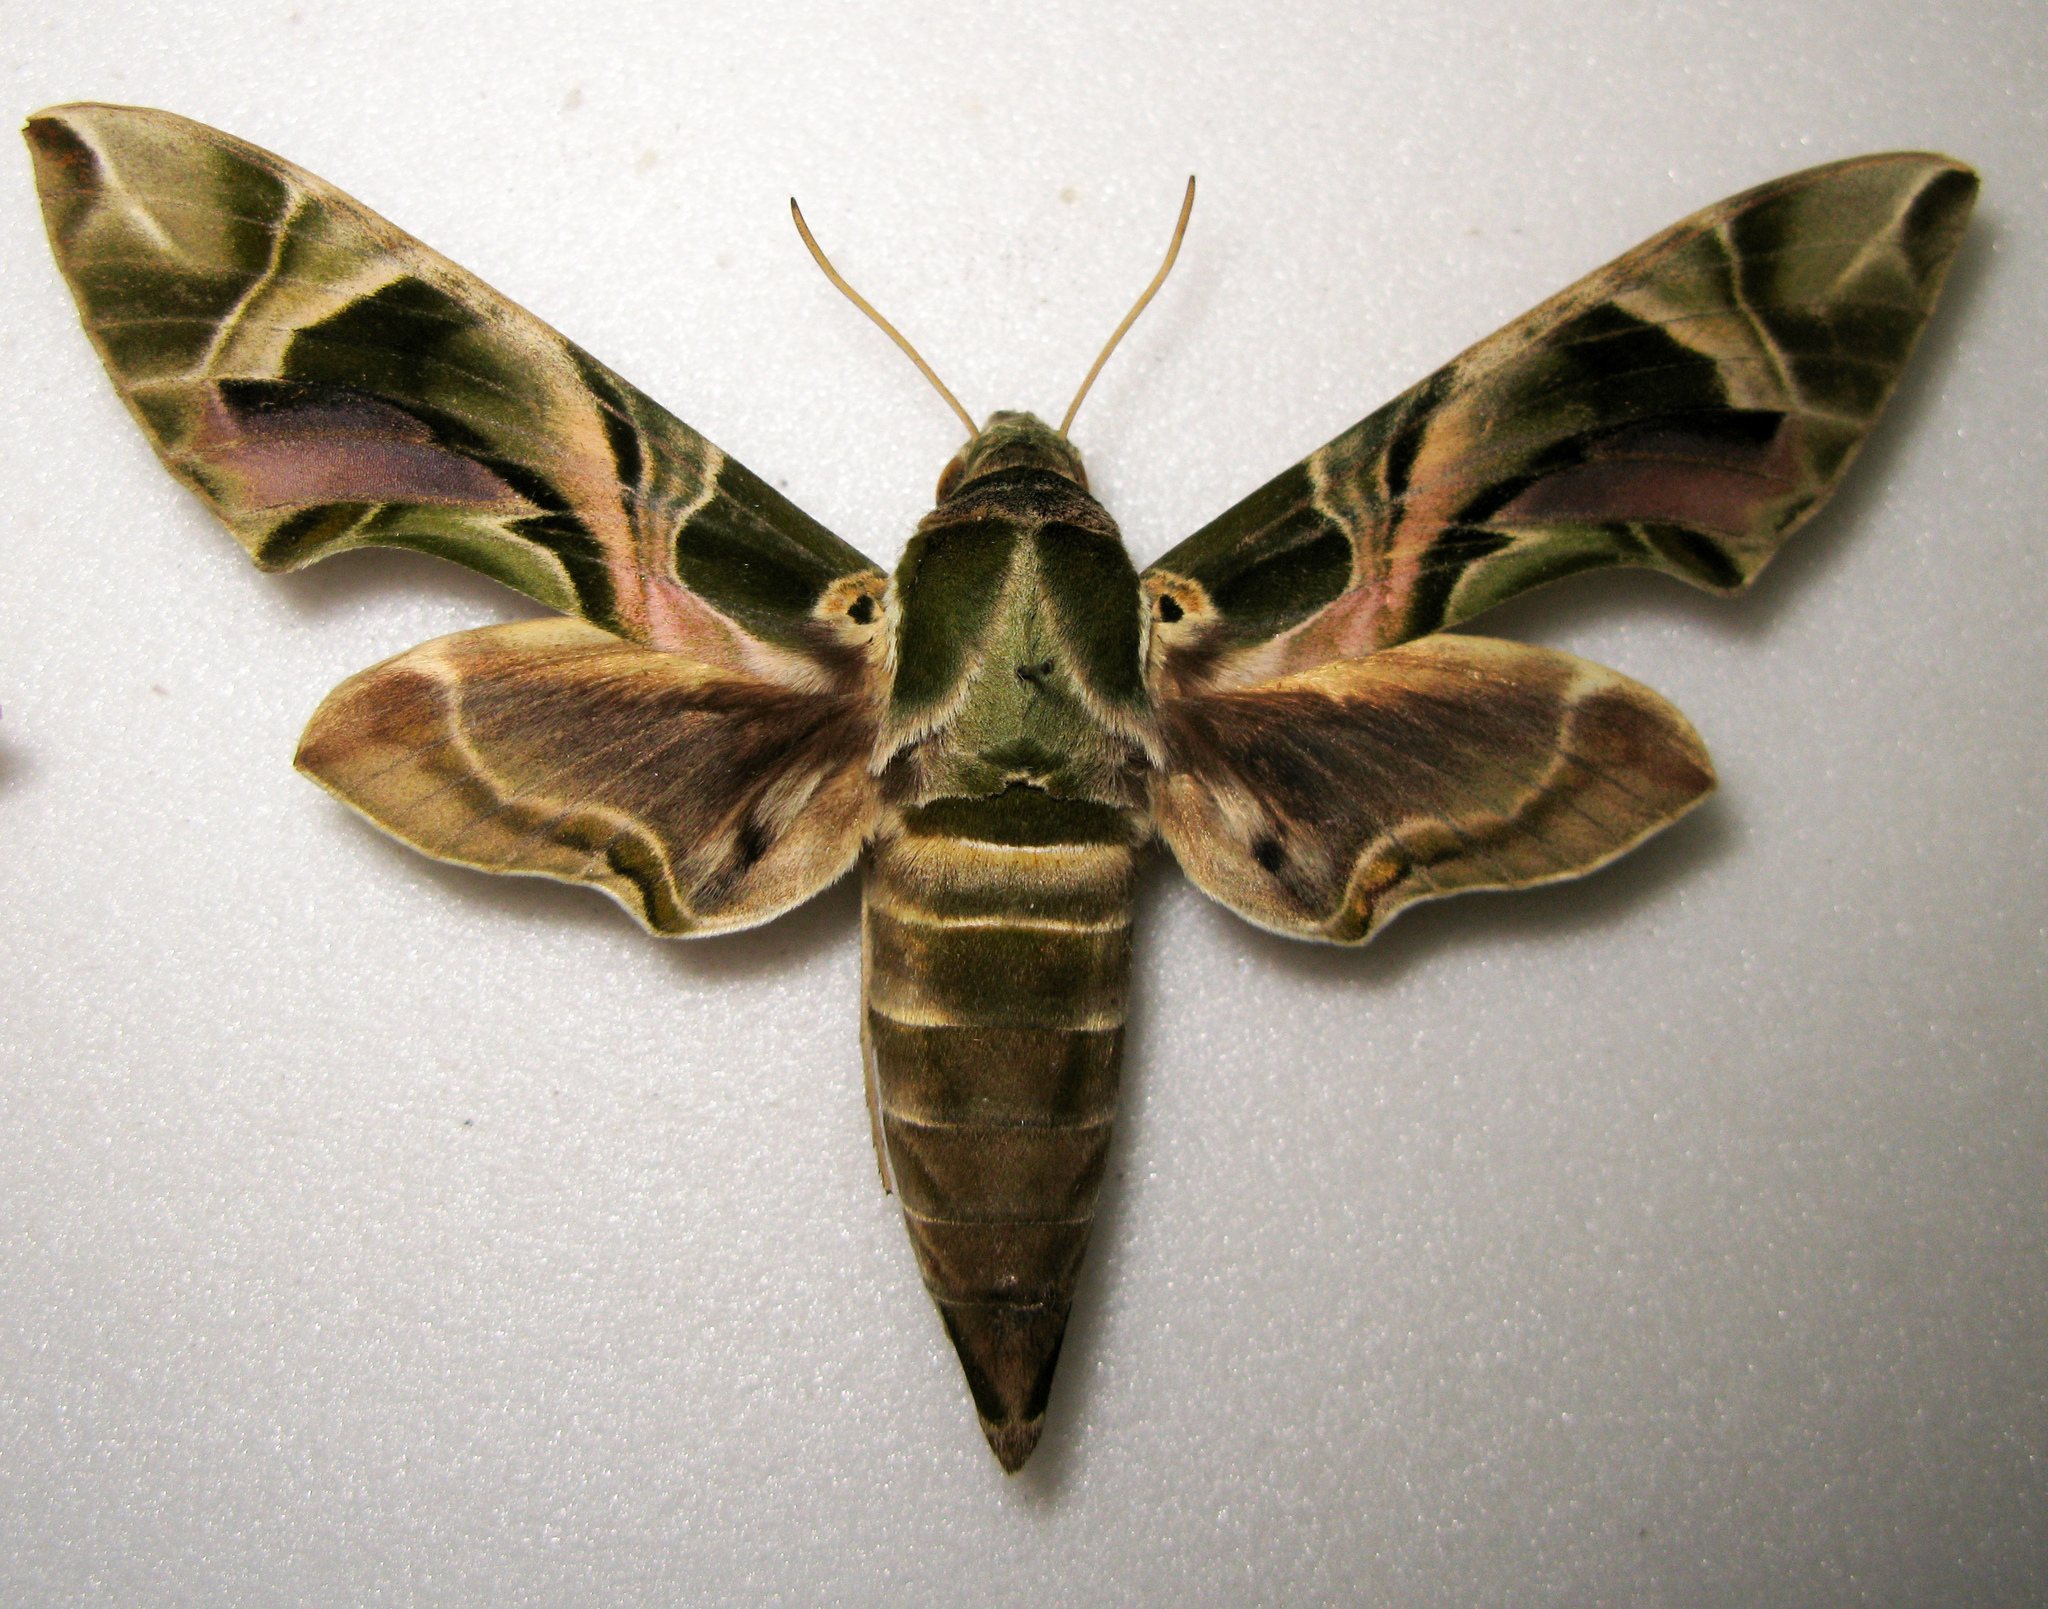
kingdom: Animalia
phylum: Arthropoda
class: Insecta
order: Lepidoptera
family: Sphingidae
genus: Daphnis
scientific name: Daphnis nerii
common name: Oleander hawk-moth
